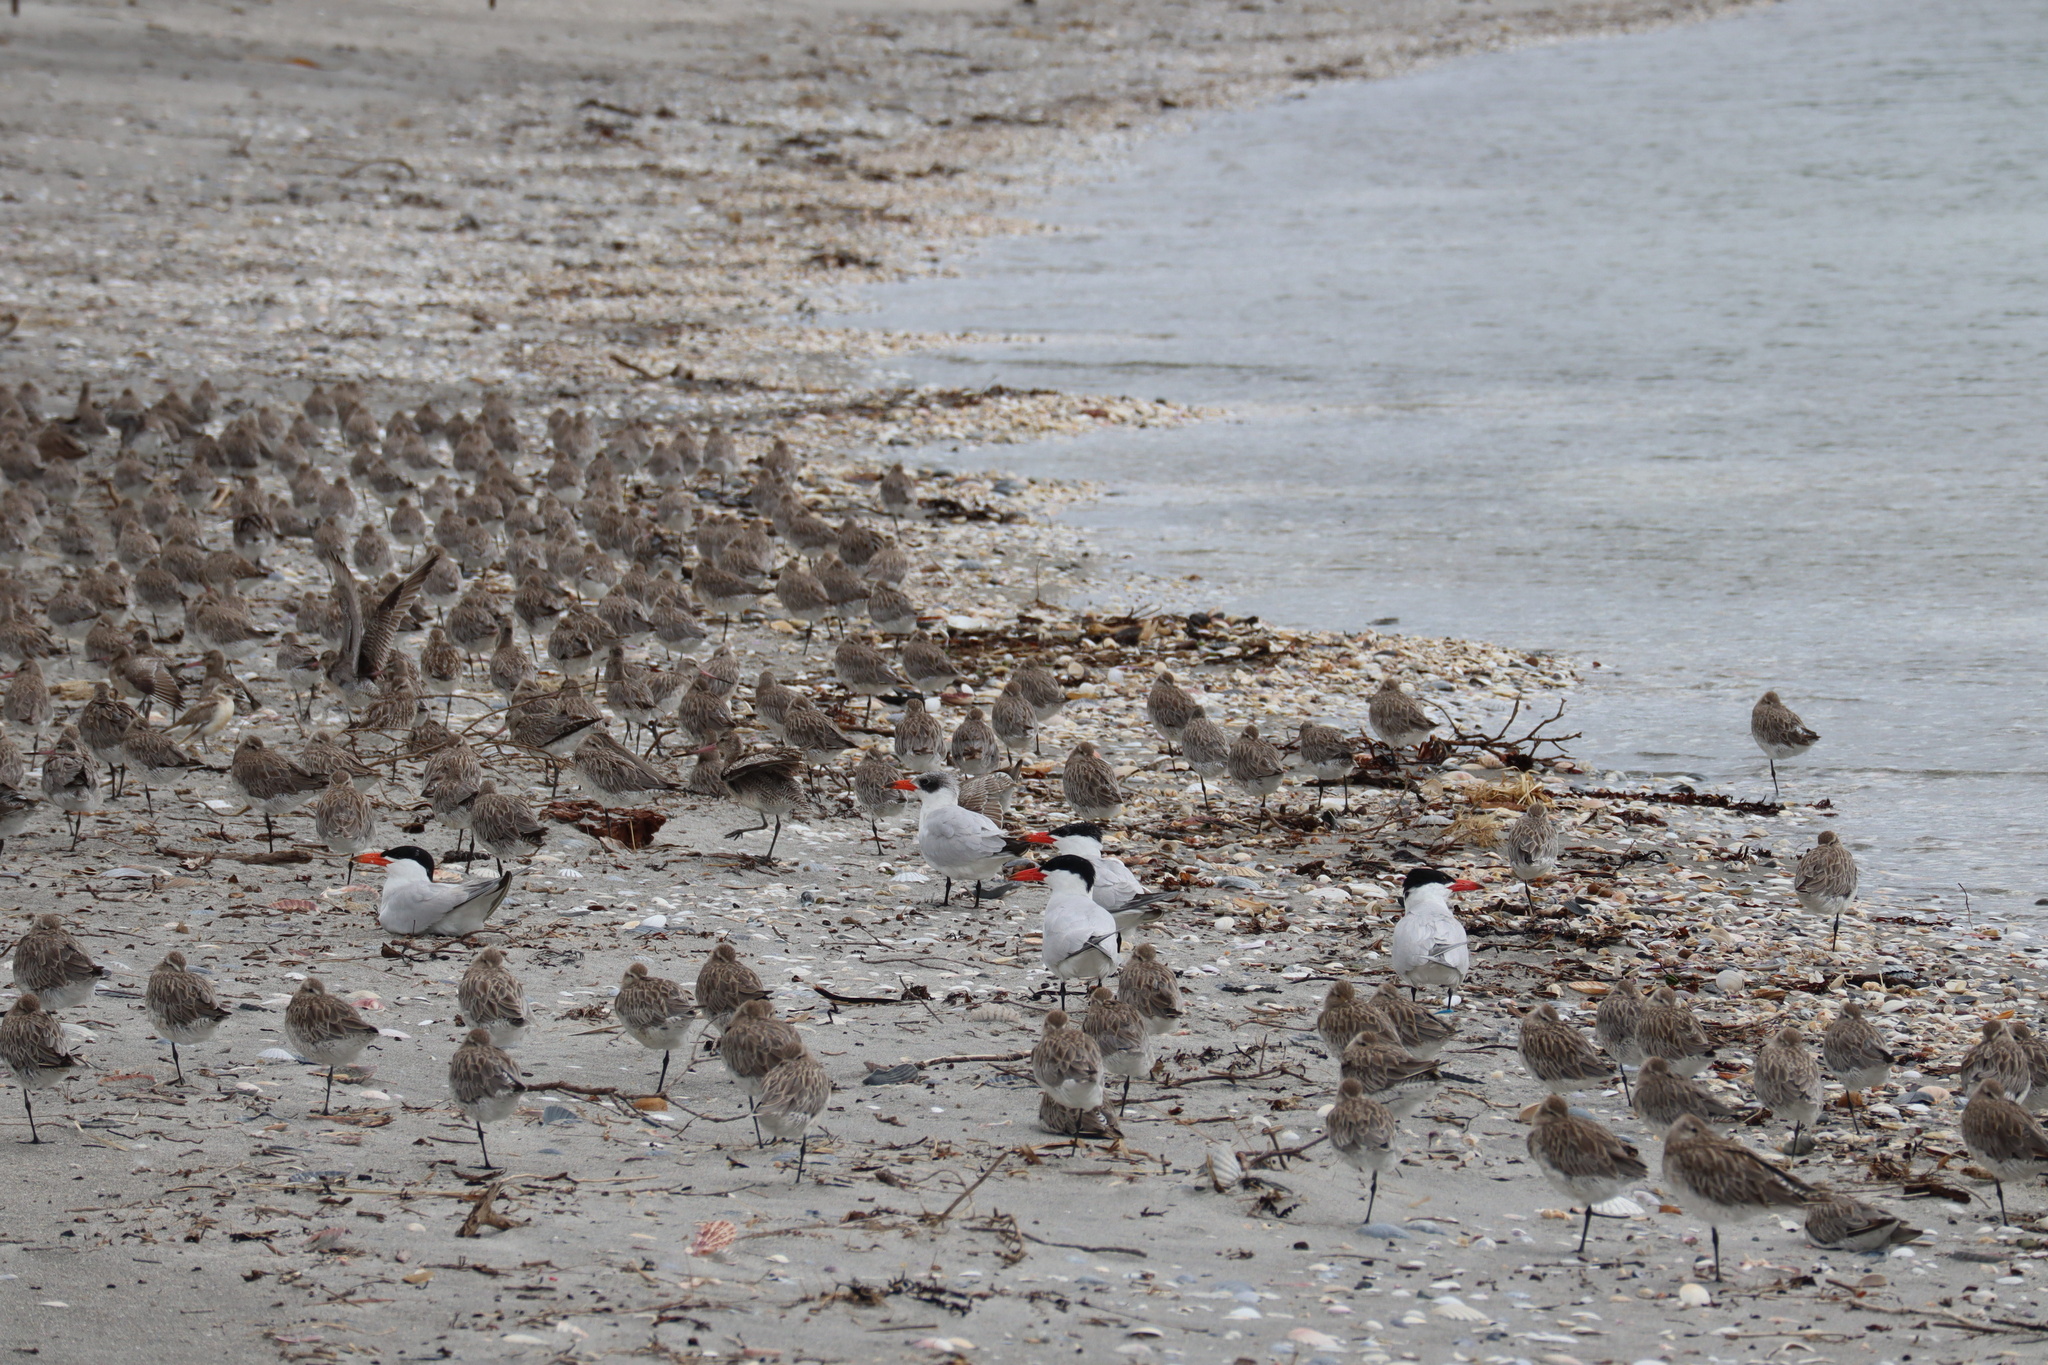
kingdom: Animalia
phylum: Chordata
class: Aves
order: Charadriiformes
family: Laridae
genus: Hydroprogne
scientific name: Hydroprogne caspia
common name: Caspian tern
